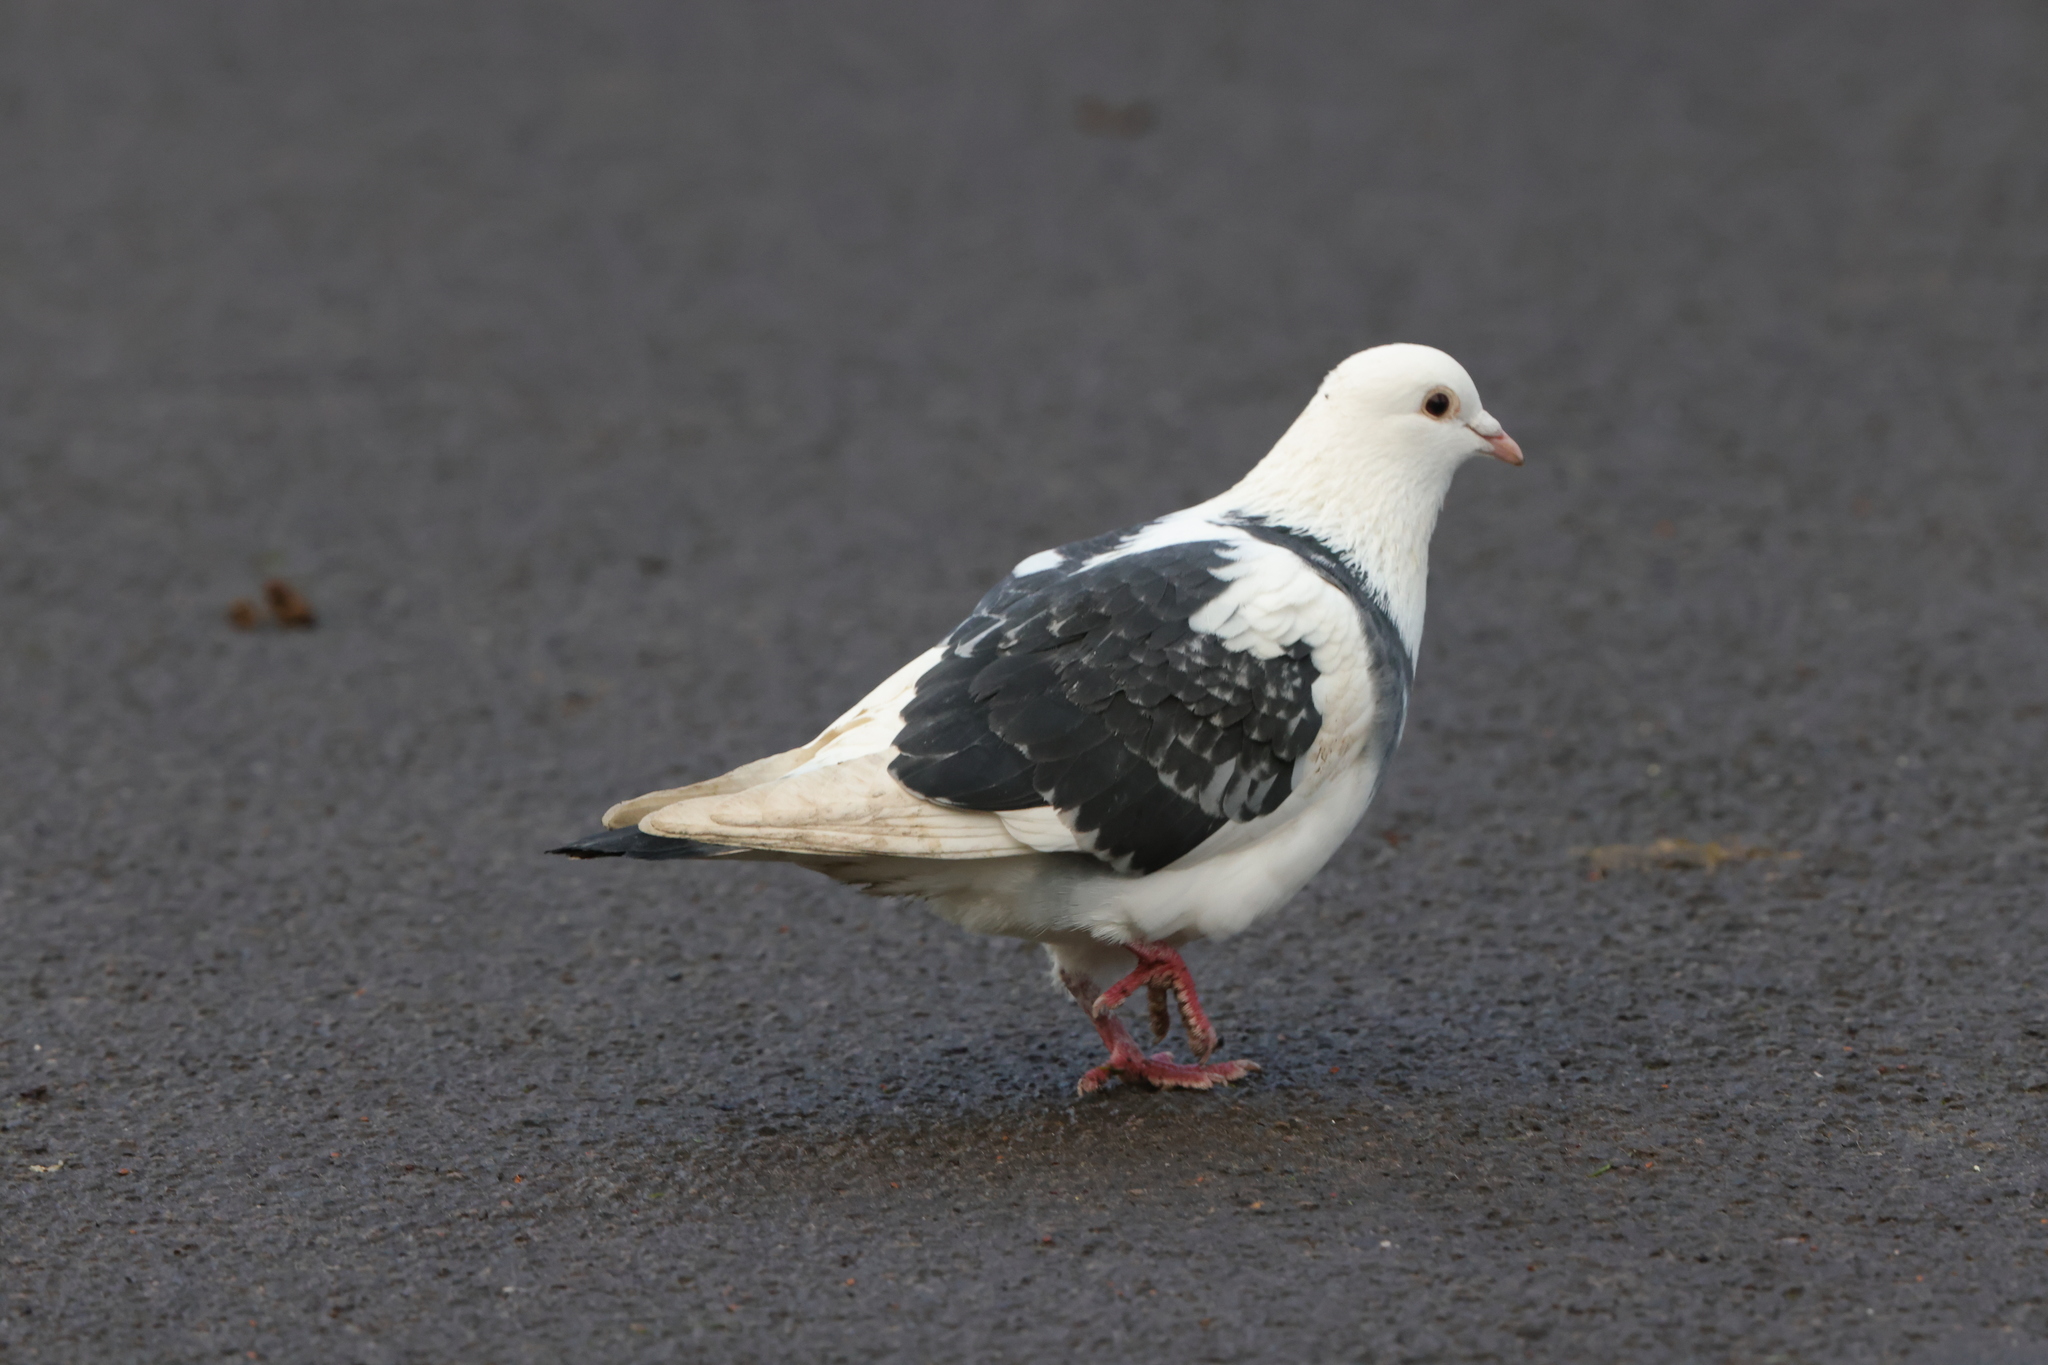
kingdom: Animalia
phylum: Chordata
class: Aves
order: Columbiformes
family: Columbidae
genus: Columba
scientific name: Columba livia
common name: Rock pigeon
